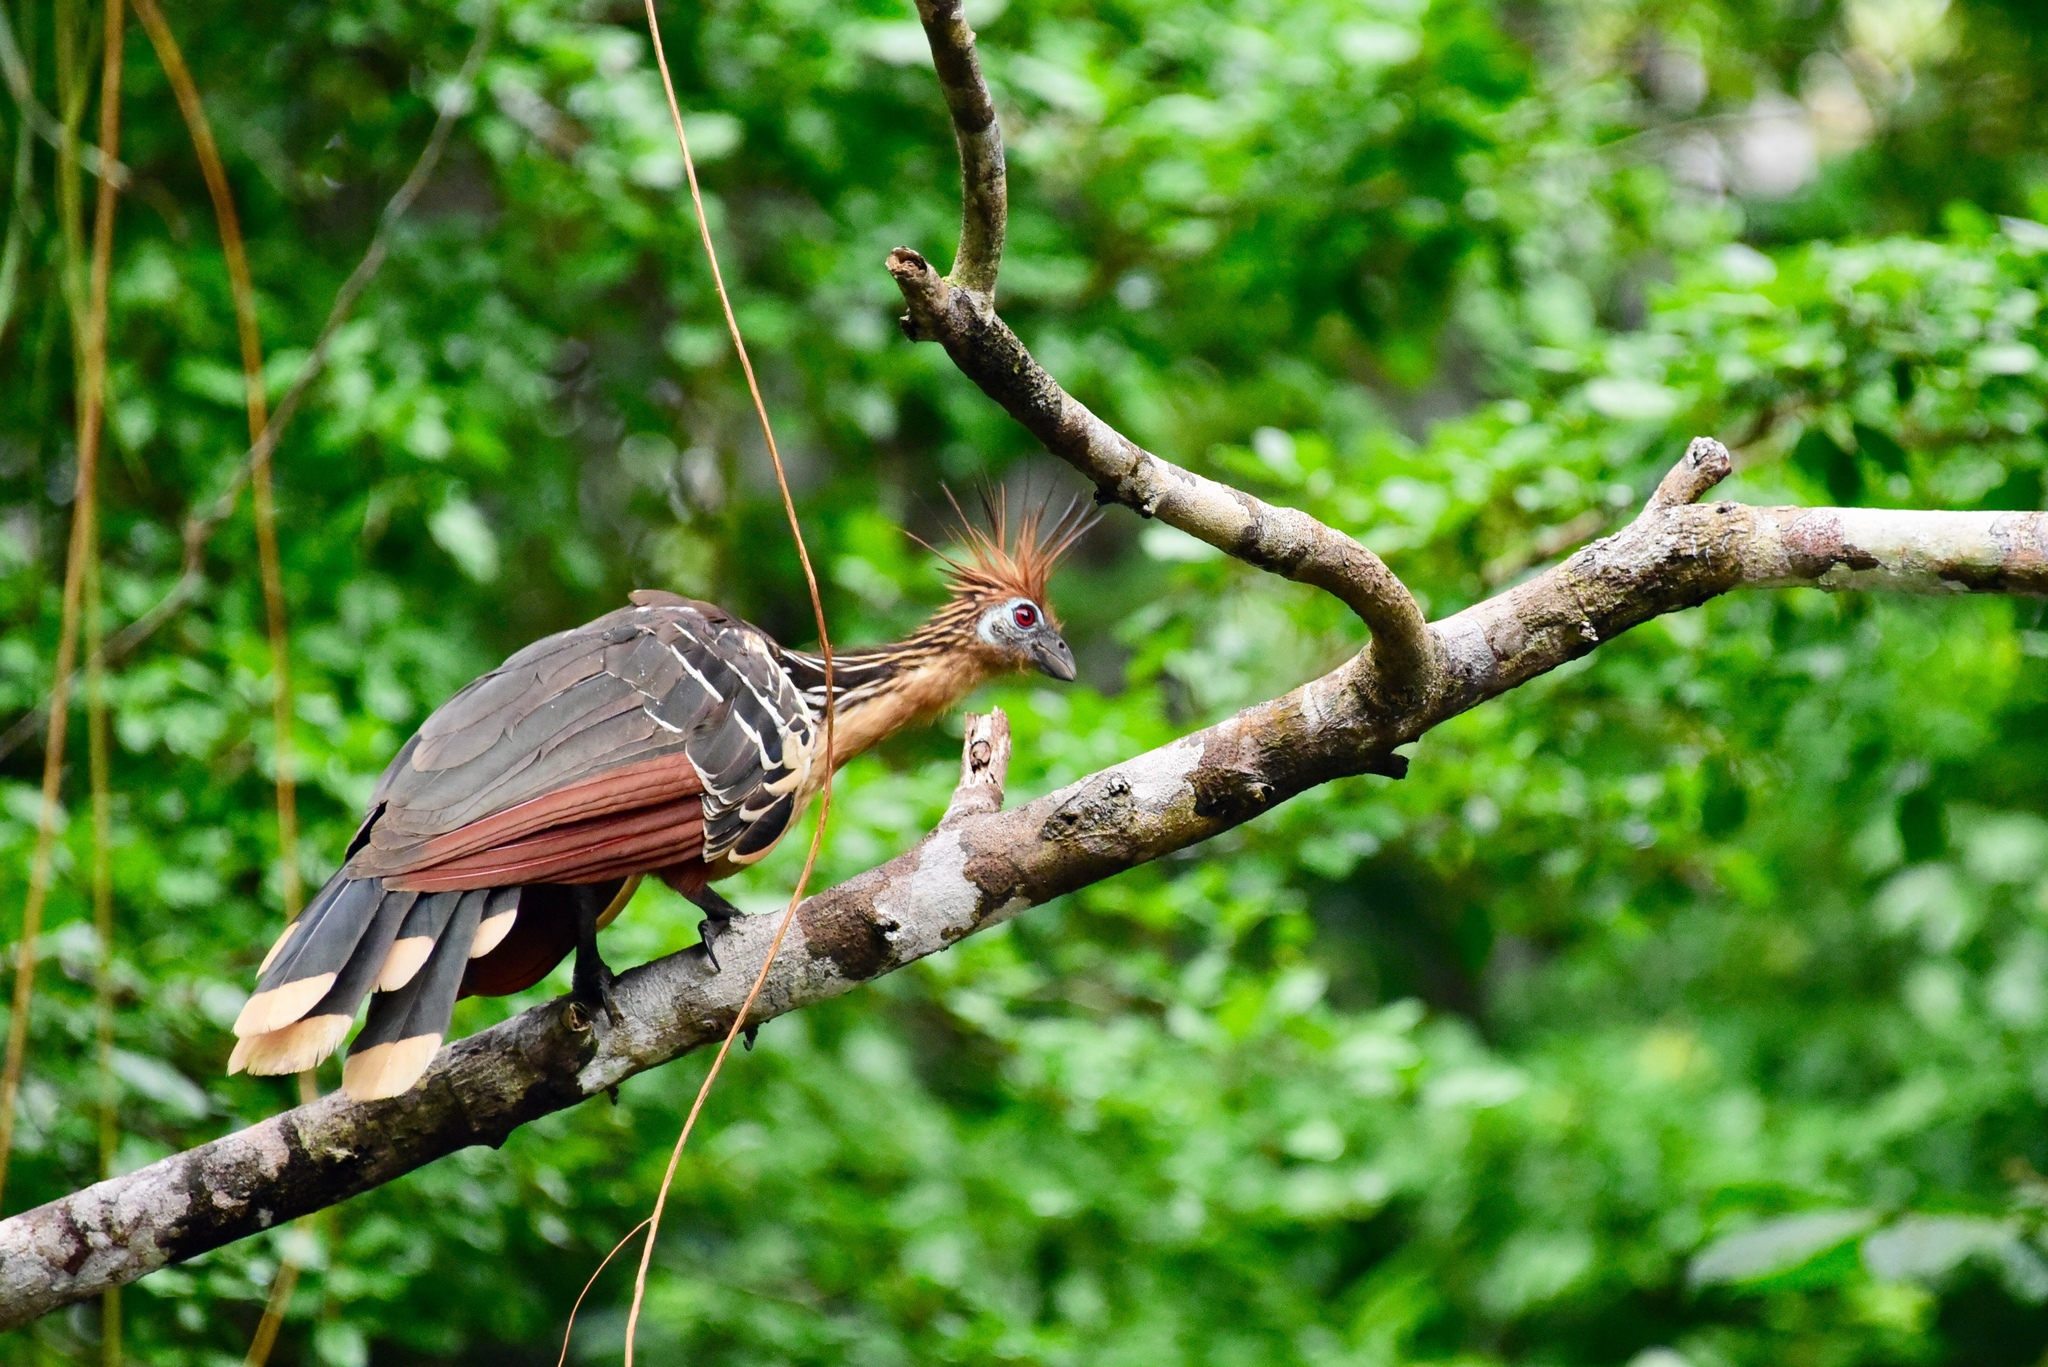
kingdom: Animalia
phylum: Chordata
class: Aves
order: Opisthocomiformes
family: Opisthocomidae
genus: Opisthocomus
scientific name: Opisthocomus hoazin
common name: Hoatzin
